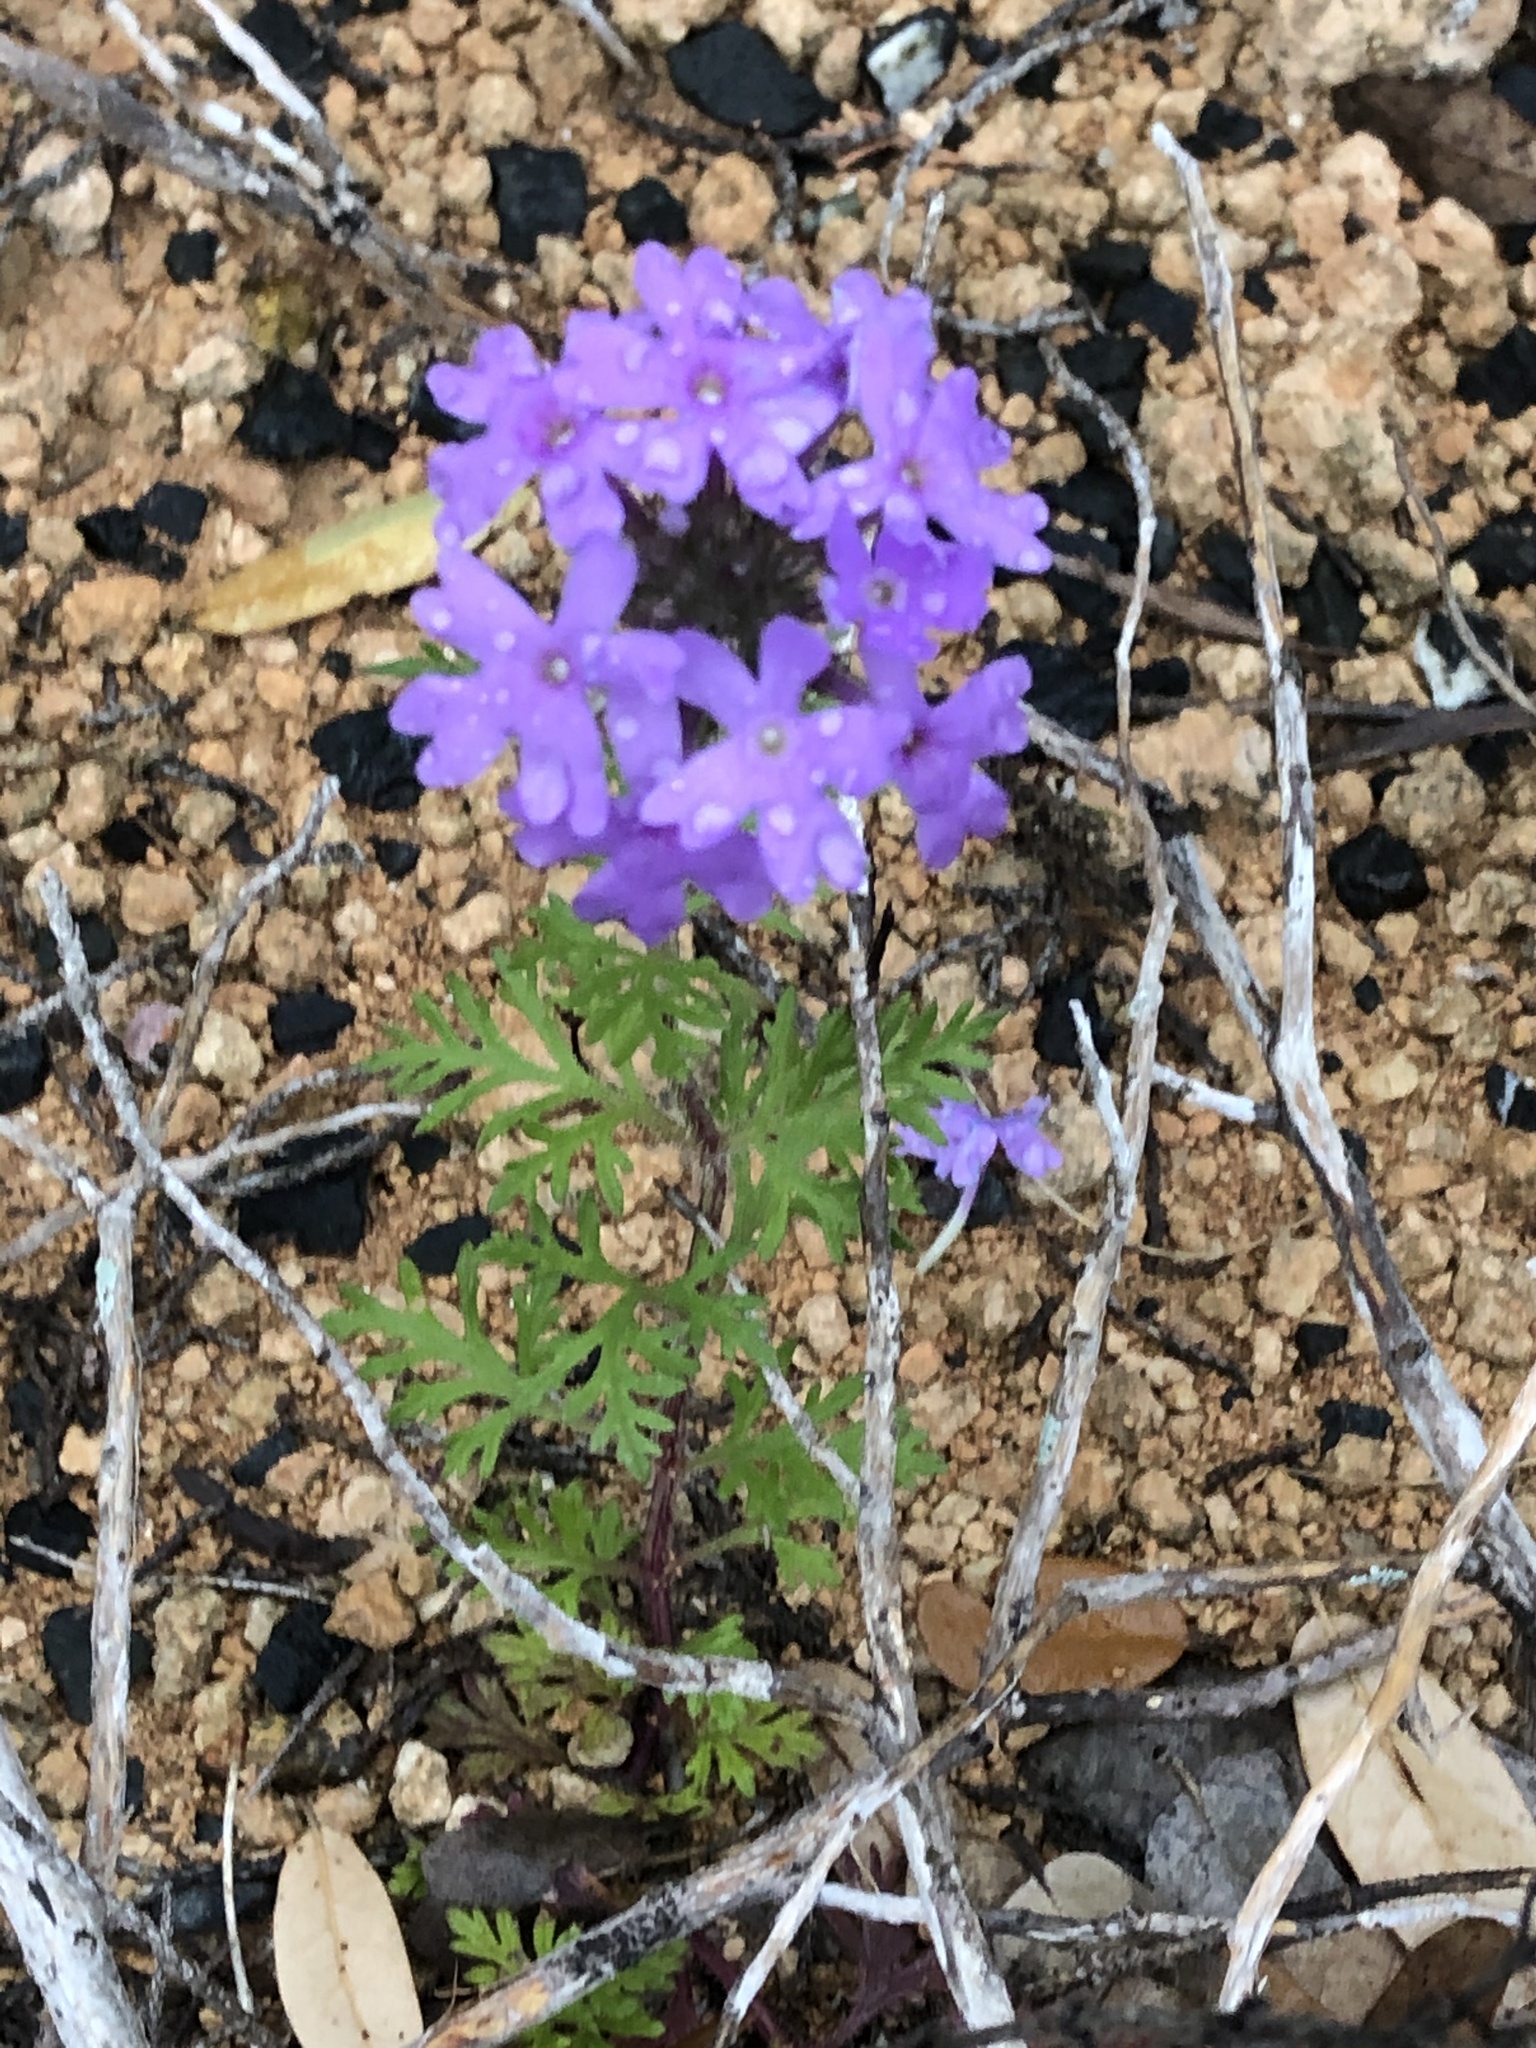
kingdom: Plantae
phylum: Tracheophyta
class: Magnoliopsida
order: Lamiales
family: Verbenaceae
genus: Verbena
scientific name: Verbena bipinnatifida
